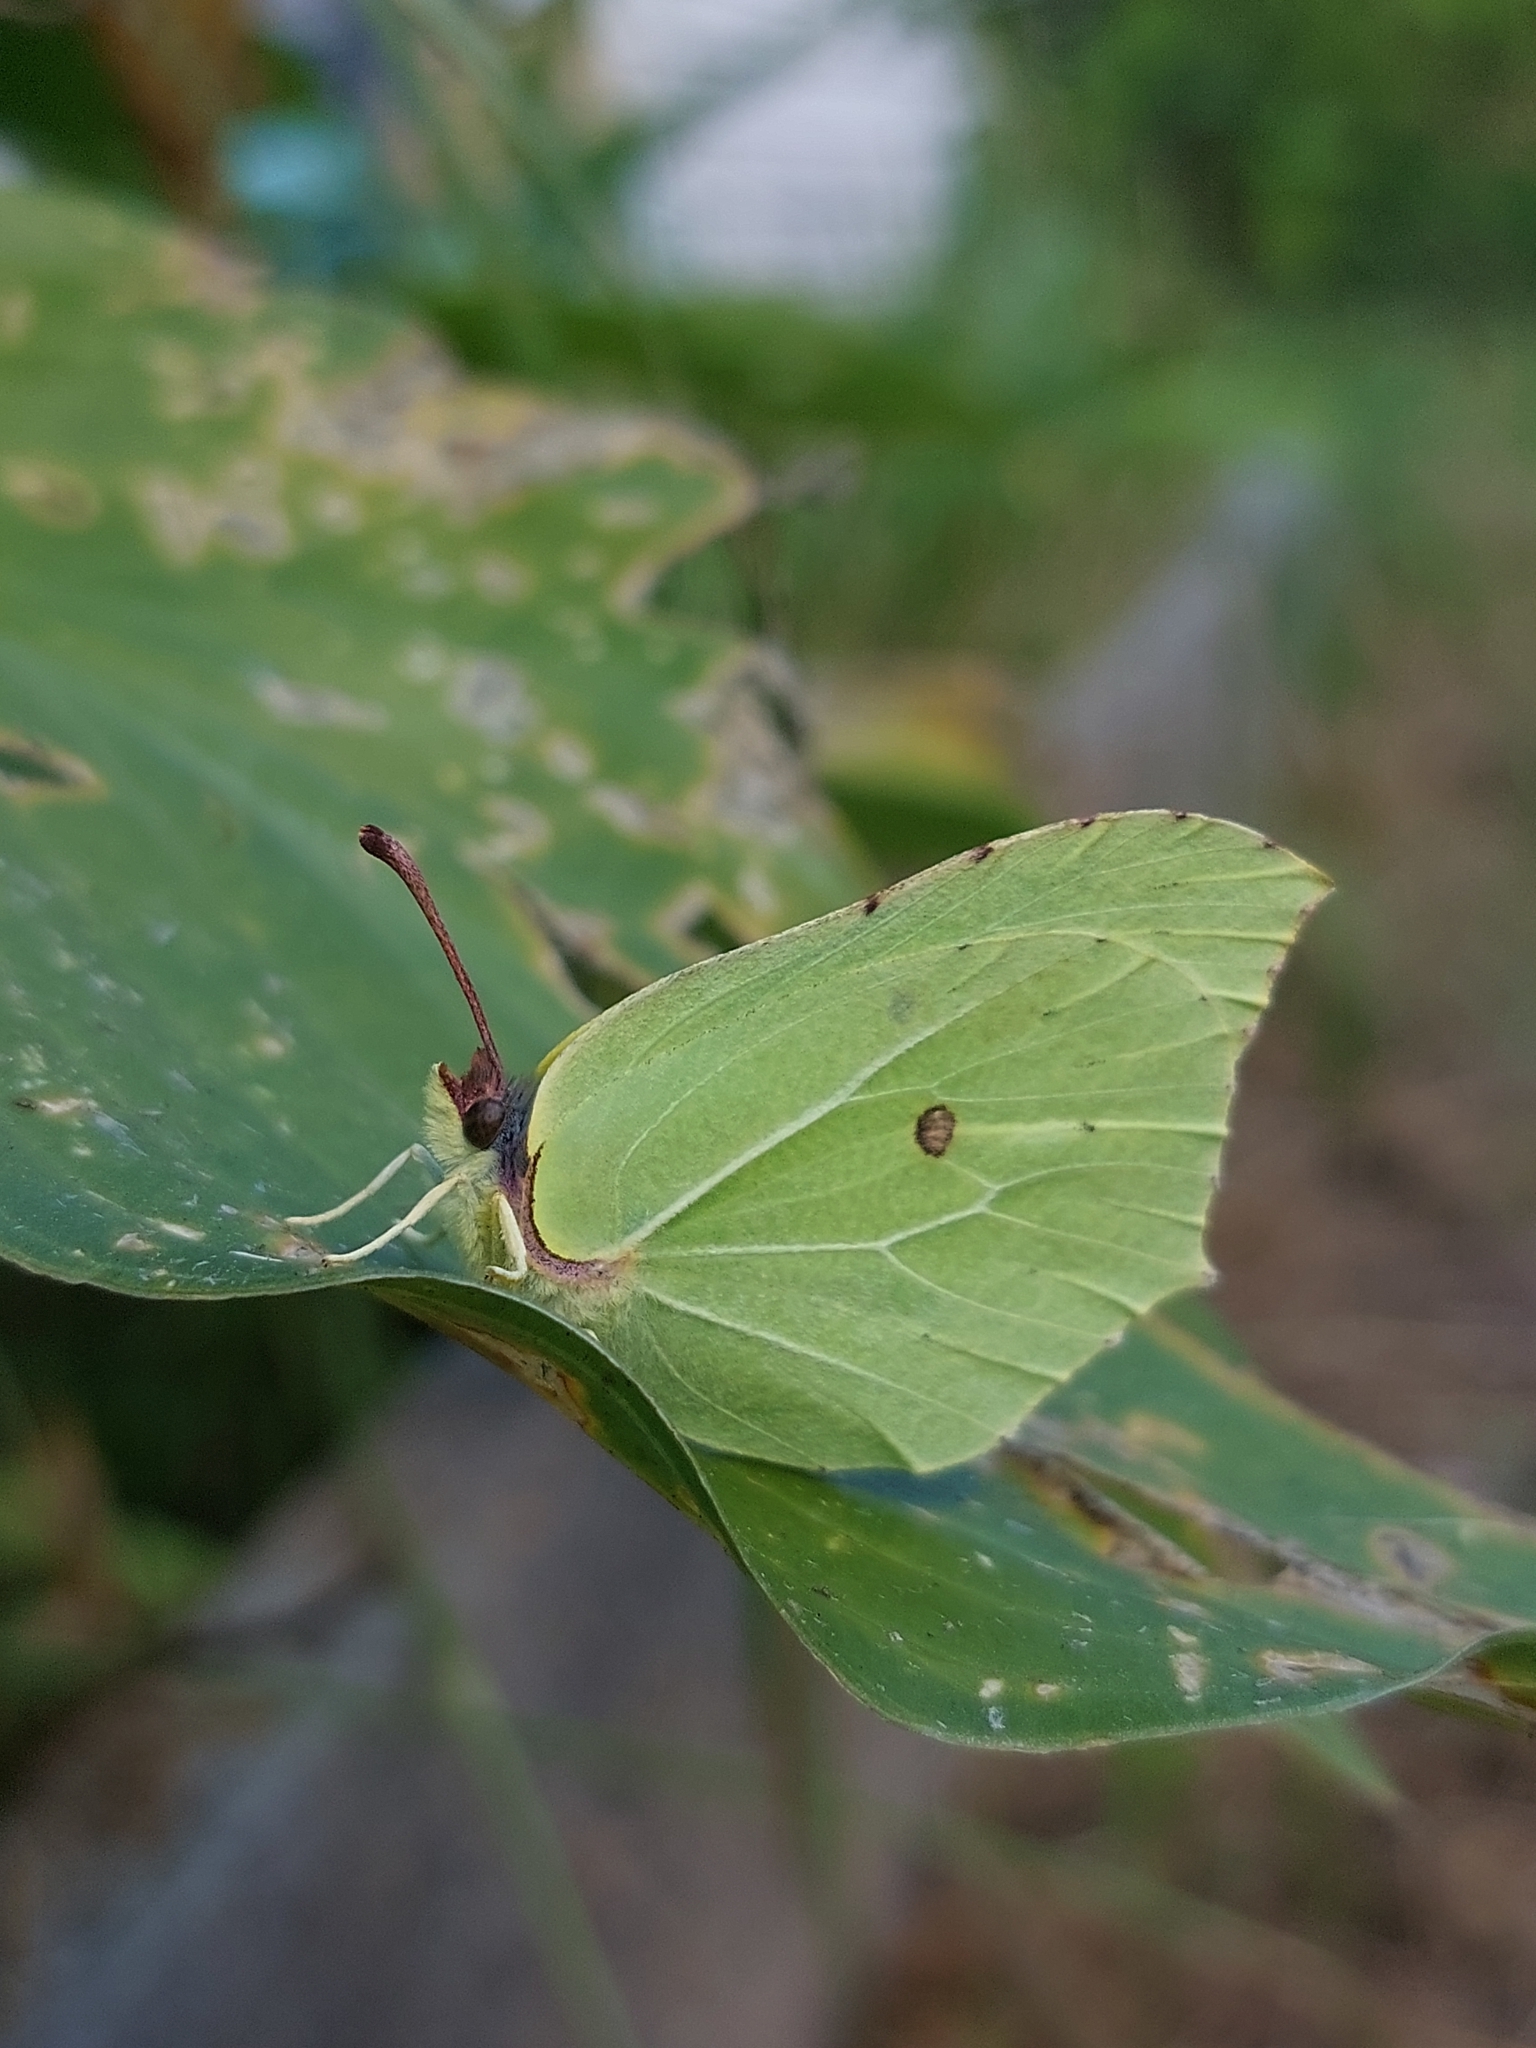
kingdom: Animalia
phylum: Arthropoda
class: Insecta
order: Lepidoptera
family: Pieridae
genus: Gonepteryx
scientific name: Gonepteryx rhamni
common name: Brimstone
